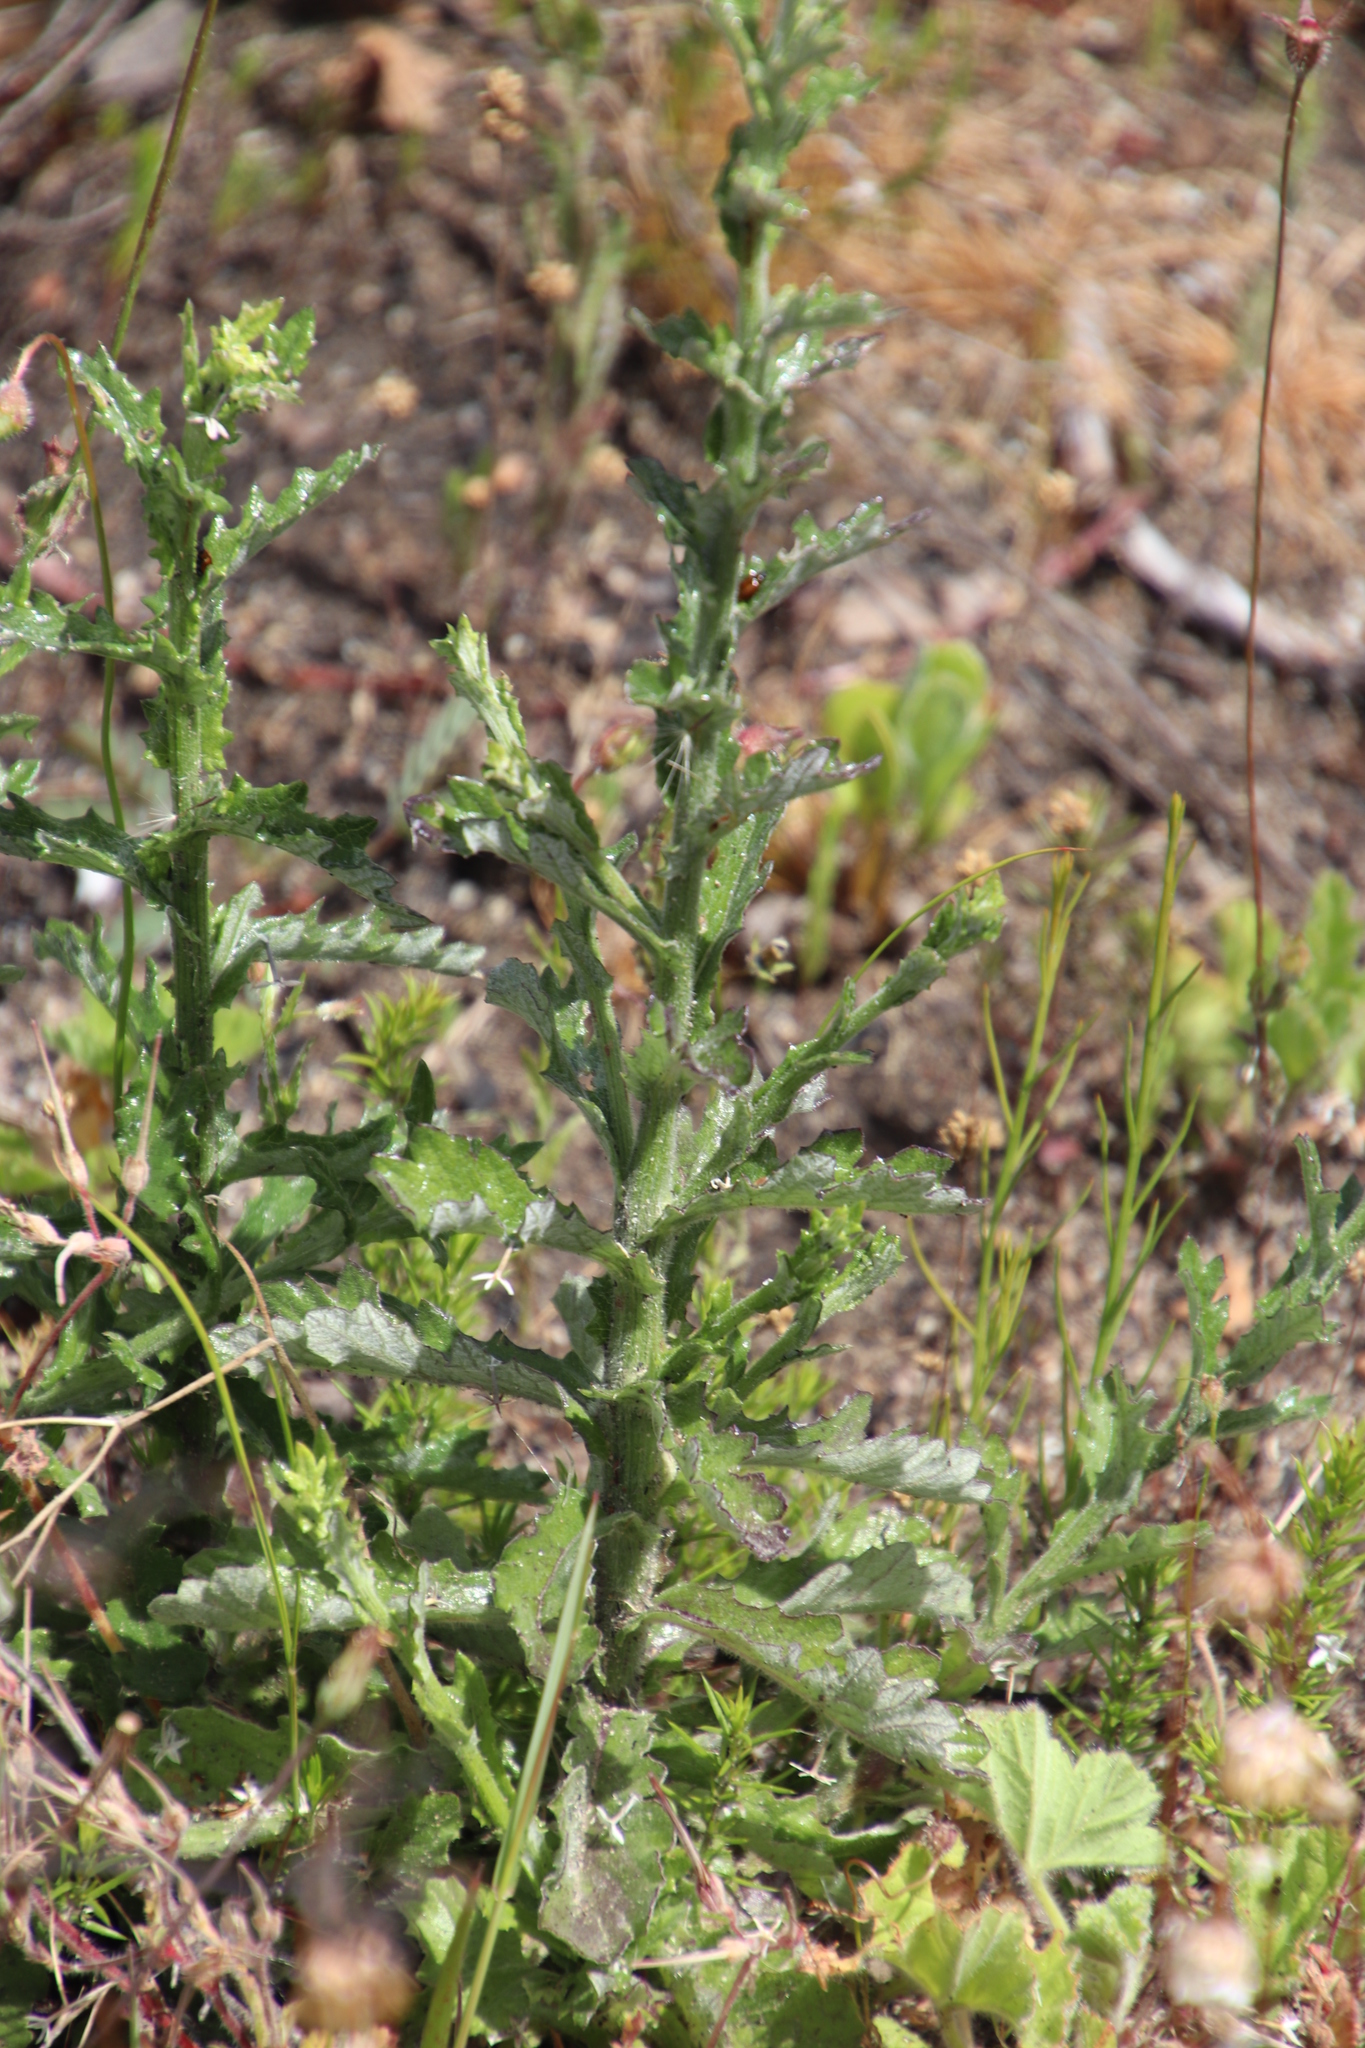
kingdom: Plantae
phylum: Tracheophyta
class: Magnoliopsida
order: Asterales
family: Asteraceae
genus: Senecio
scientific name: Senecio pubigerus
